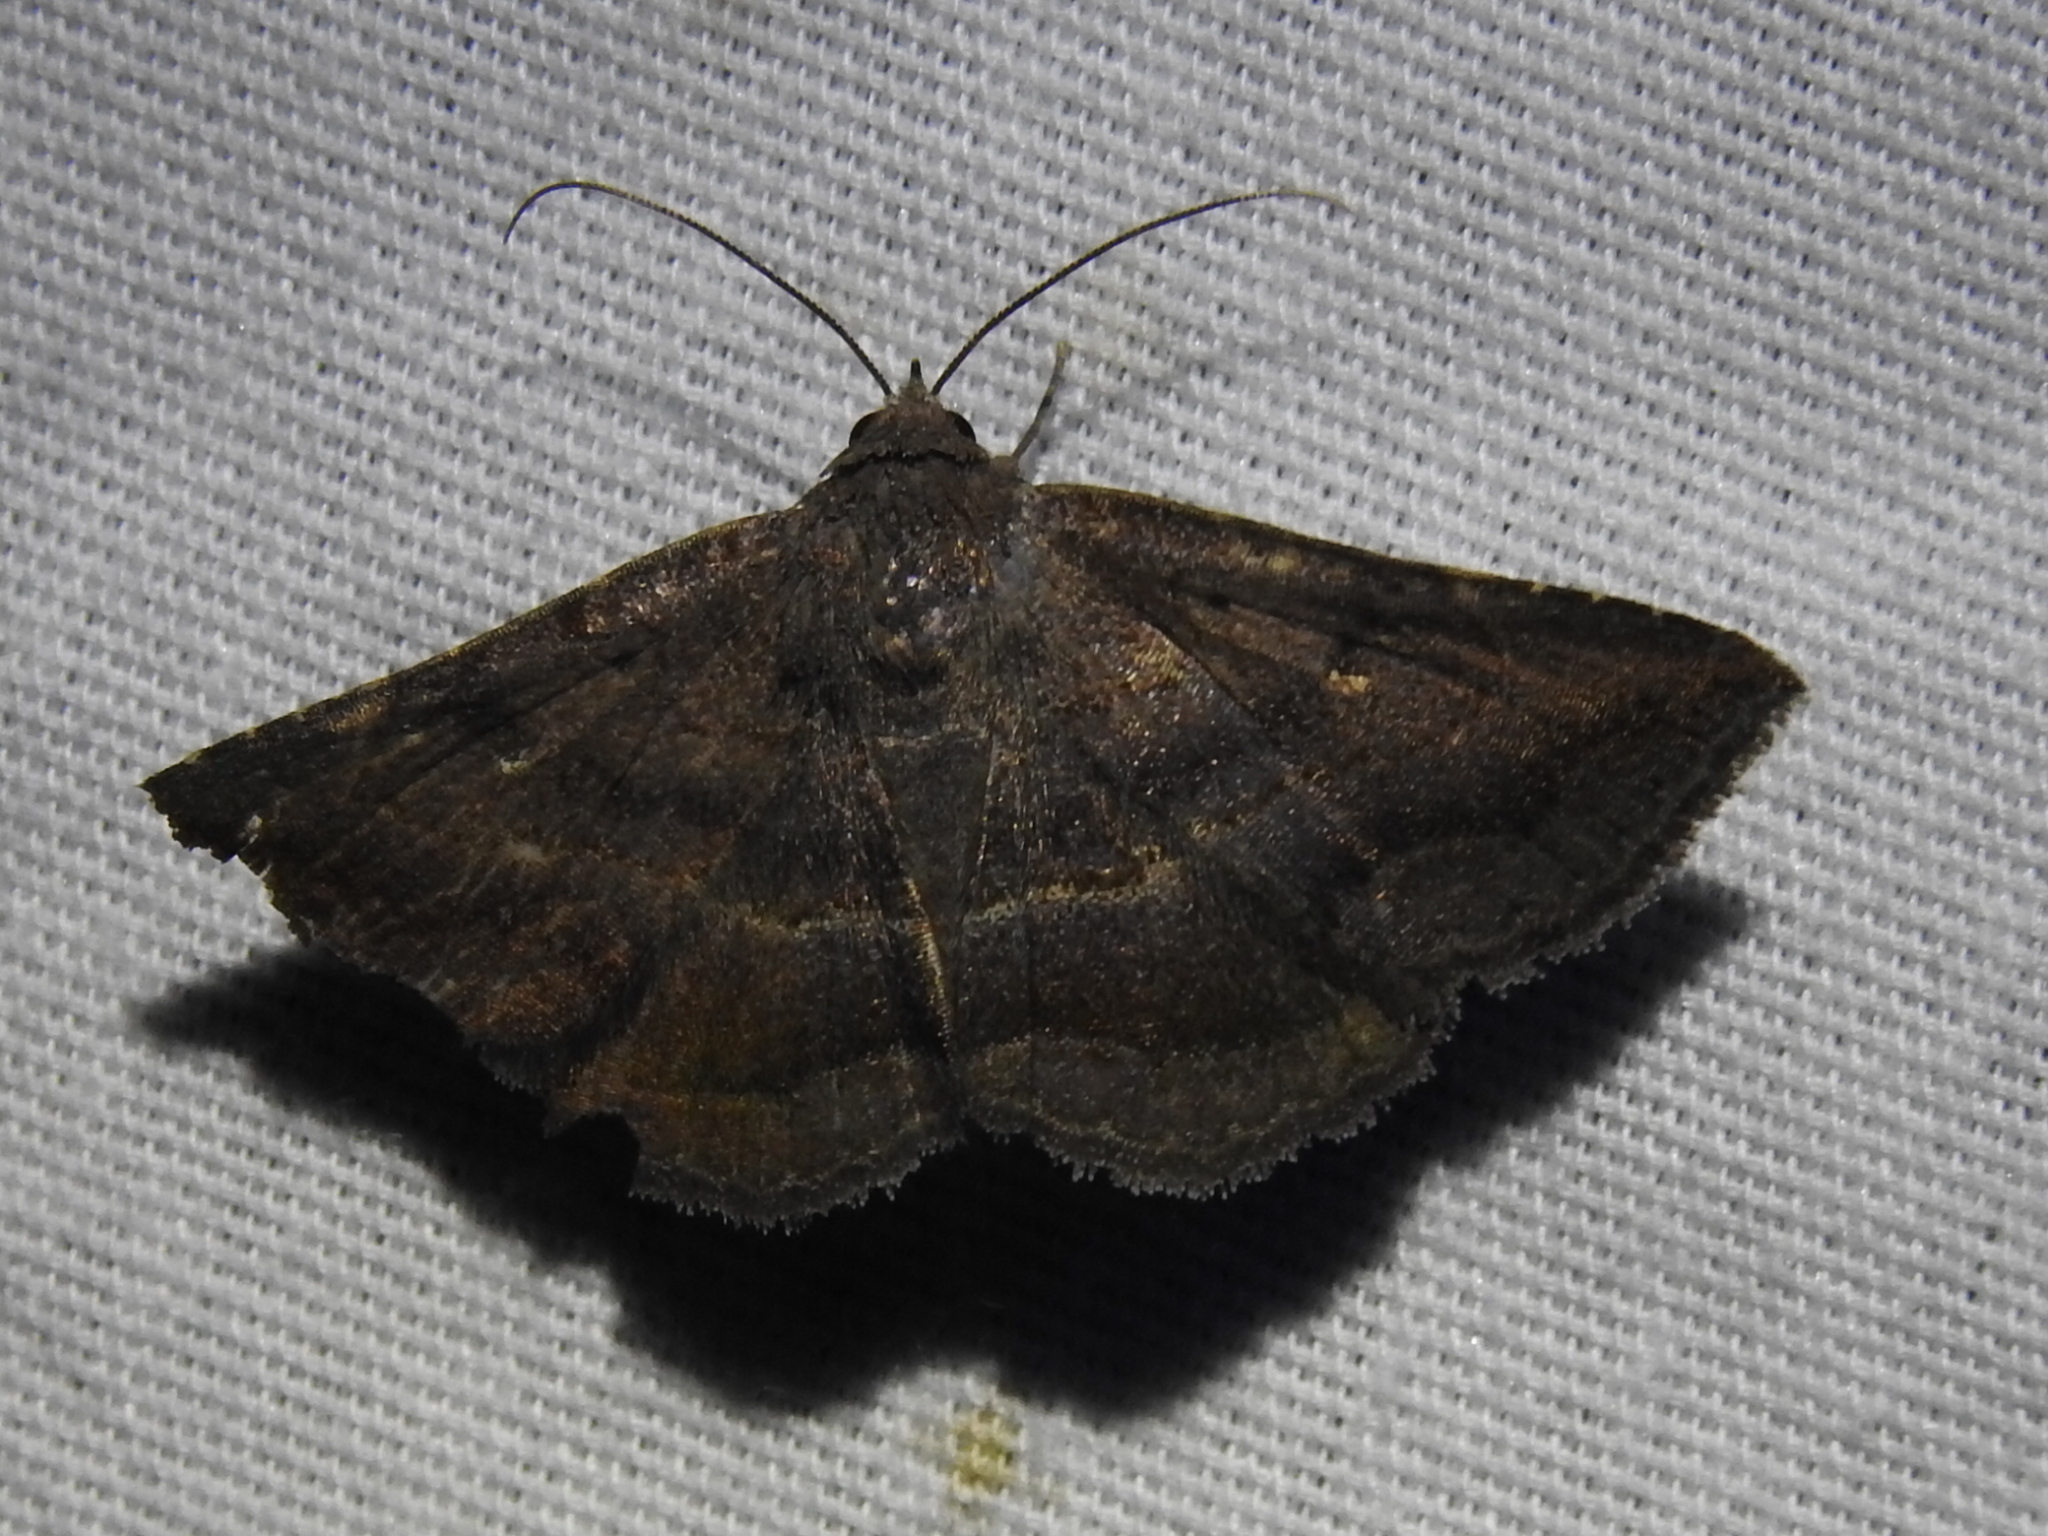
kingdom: Animalia
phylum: Arthropoda
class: Insecta
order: Lepidoptera
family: Erebidae
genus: Lesmone
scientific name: Lesmone detrahens
